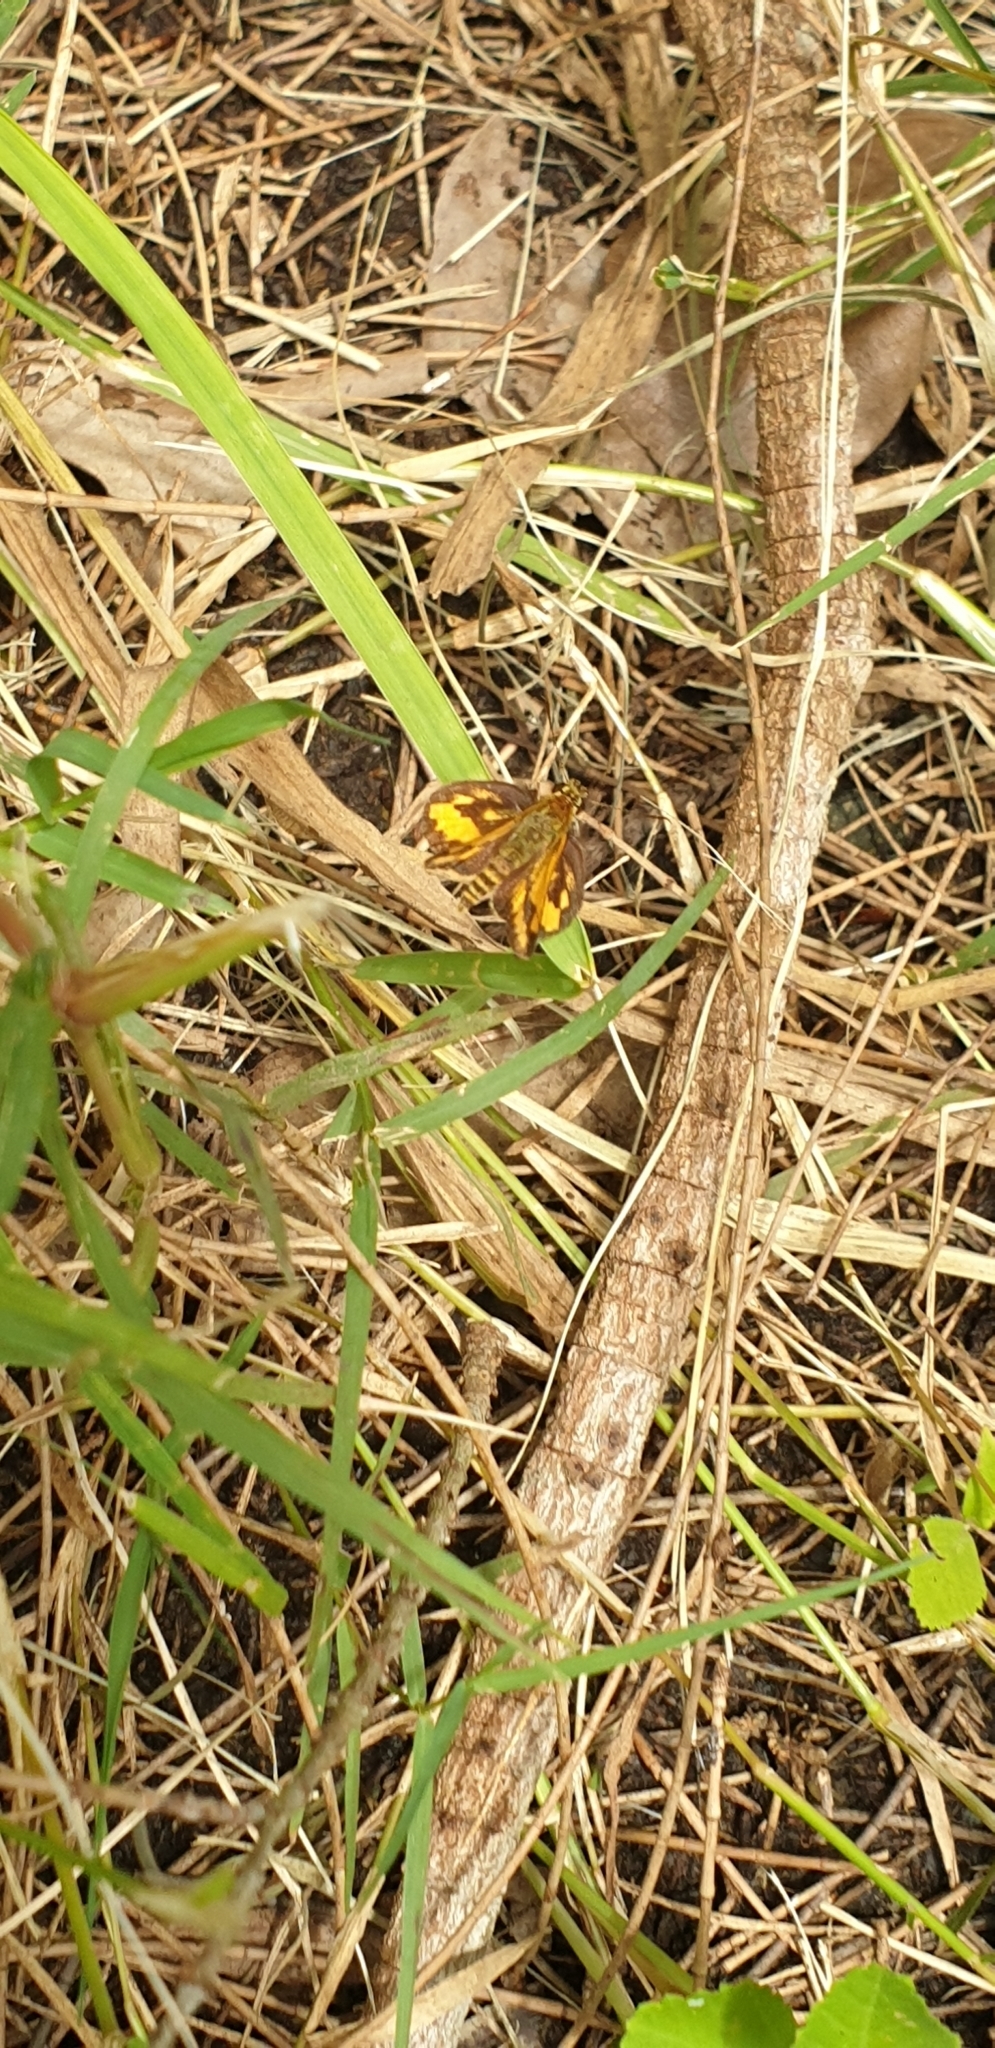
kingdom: Animalia
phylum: Arthropoda
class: Insecta
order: Lepidoptera
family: Hesperiidae
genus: Suniana
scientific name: Suniana sunias
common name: Wide-brand grass-dart
